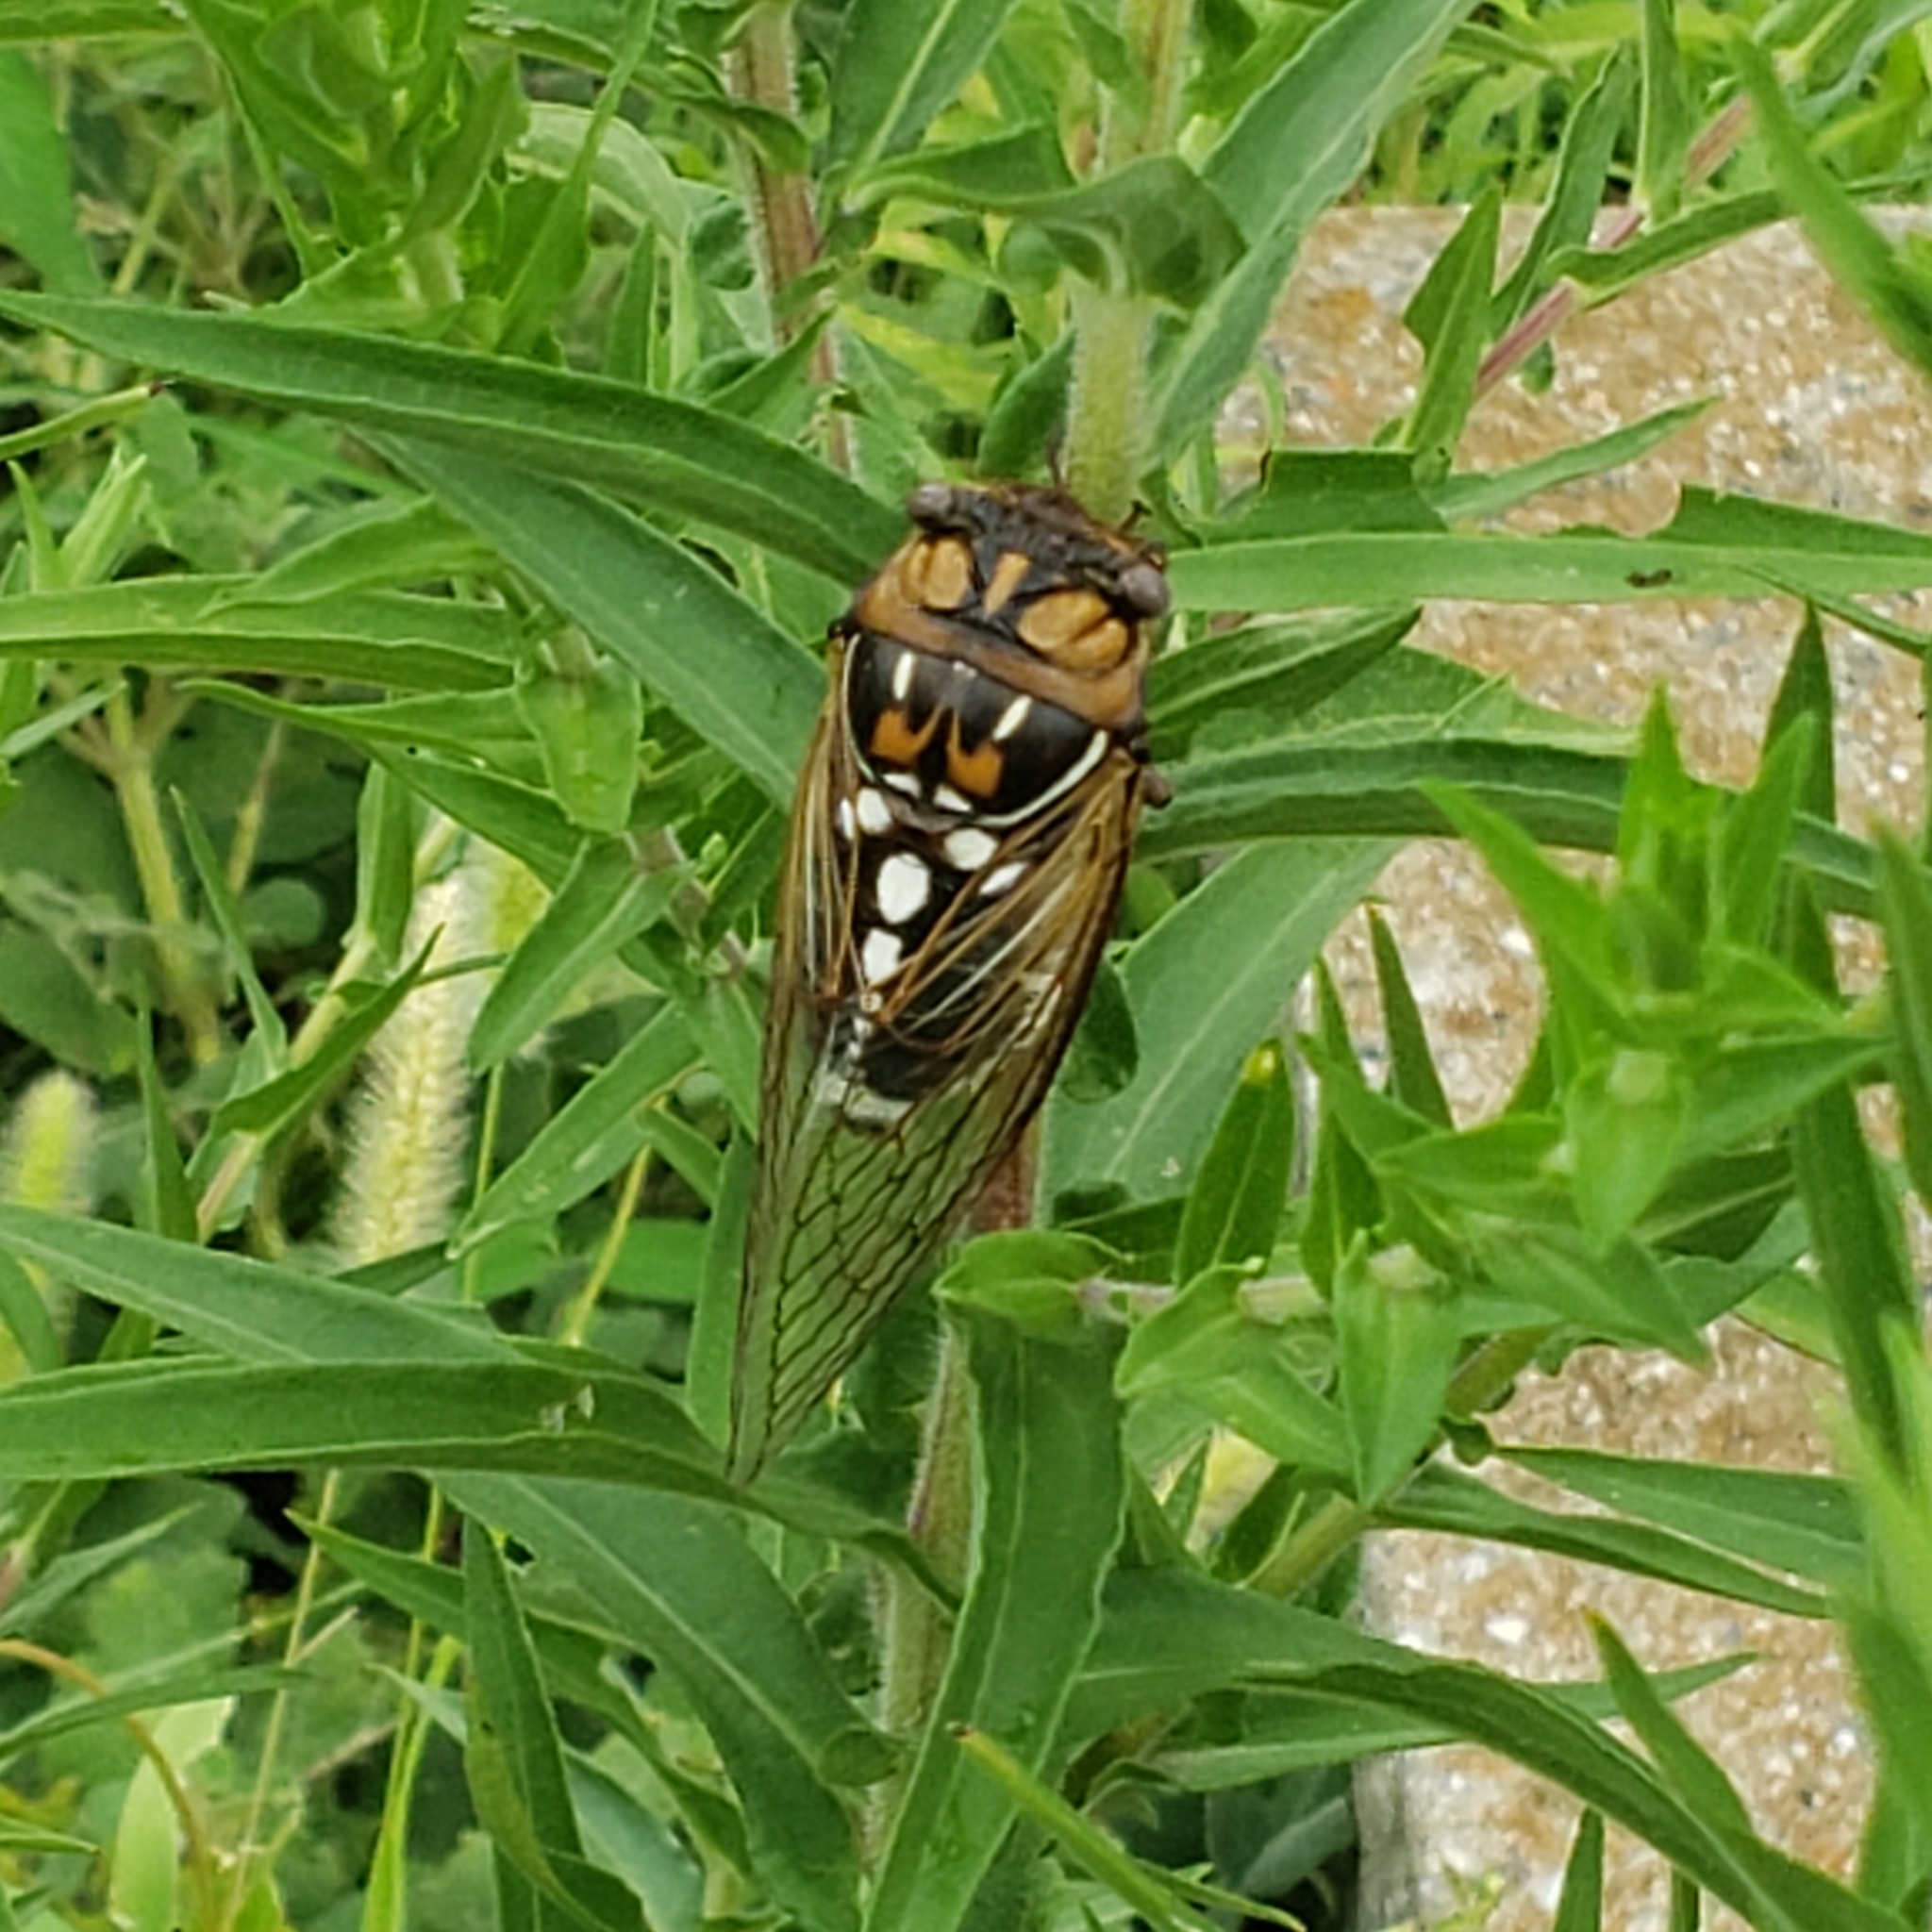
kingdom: Animalia
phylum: Arthropoda
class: Insecta
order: Hemiptera
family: Cicadidae
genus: Megatibicen
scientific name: Megatibicen dorsatus
